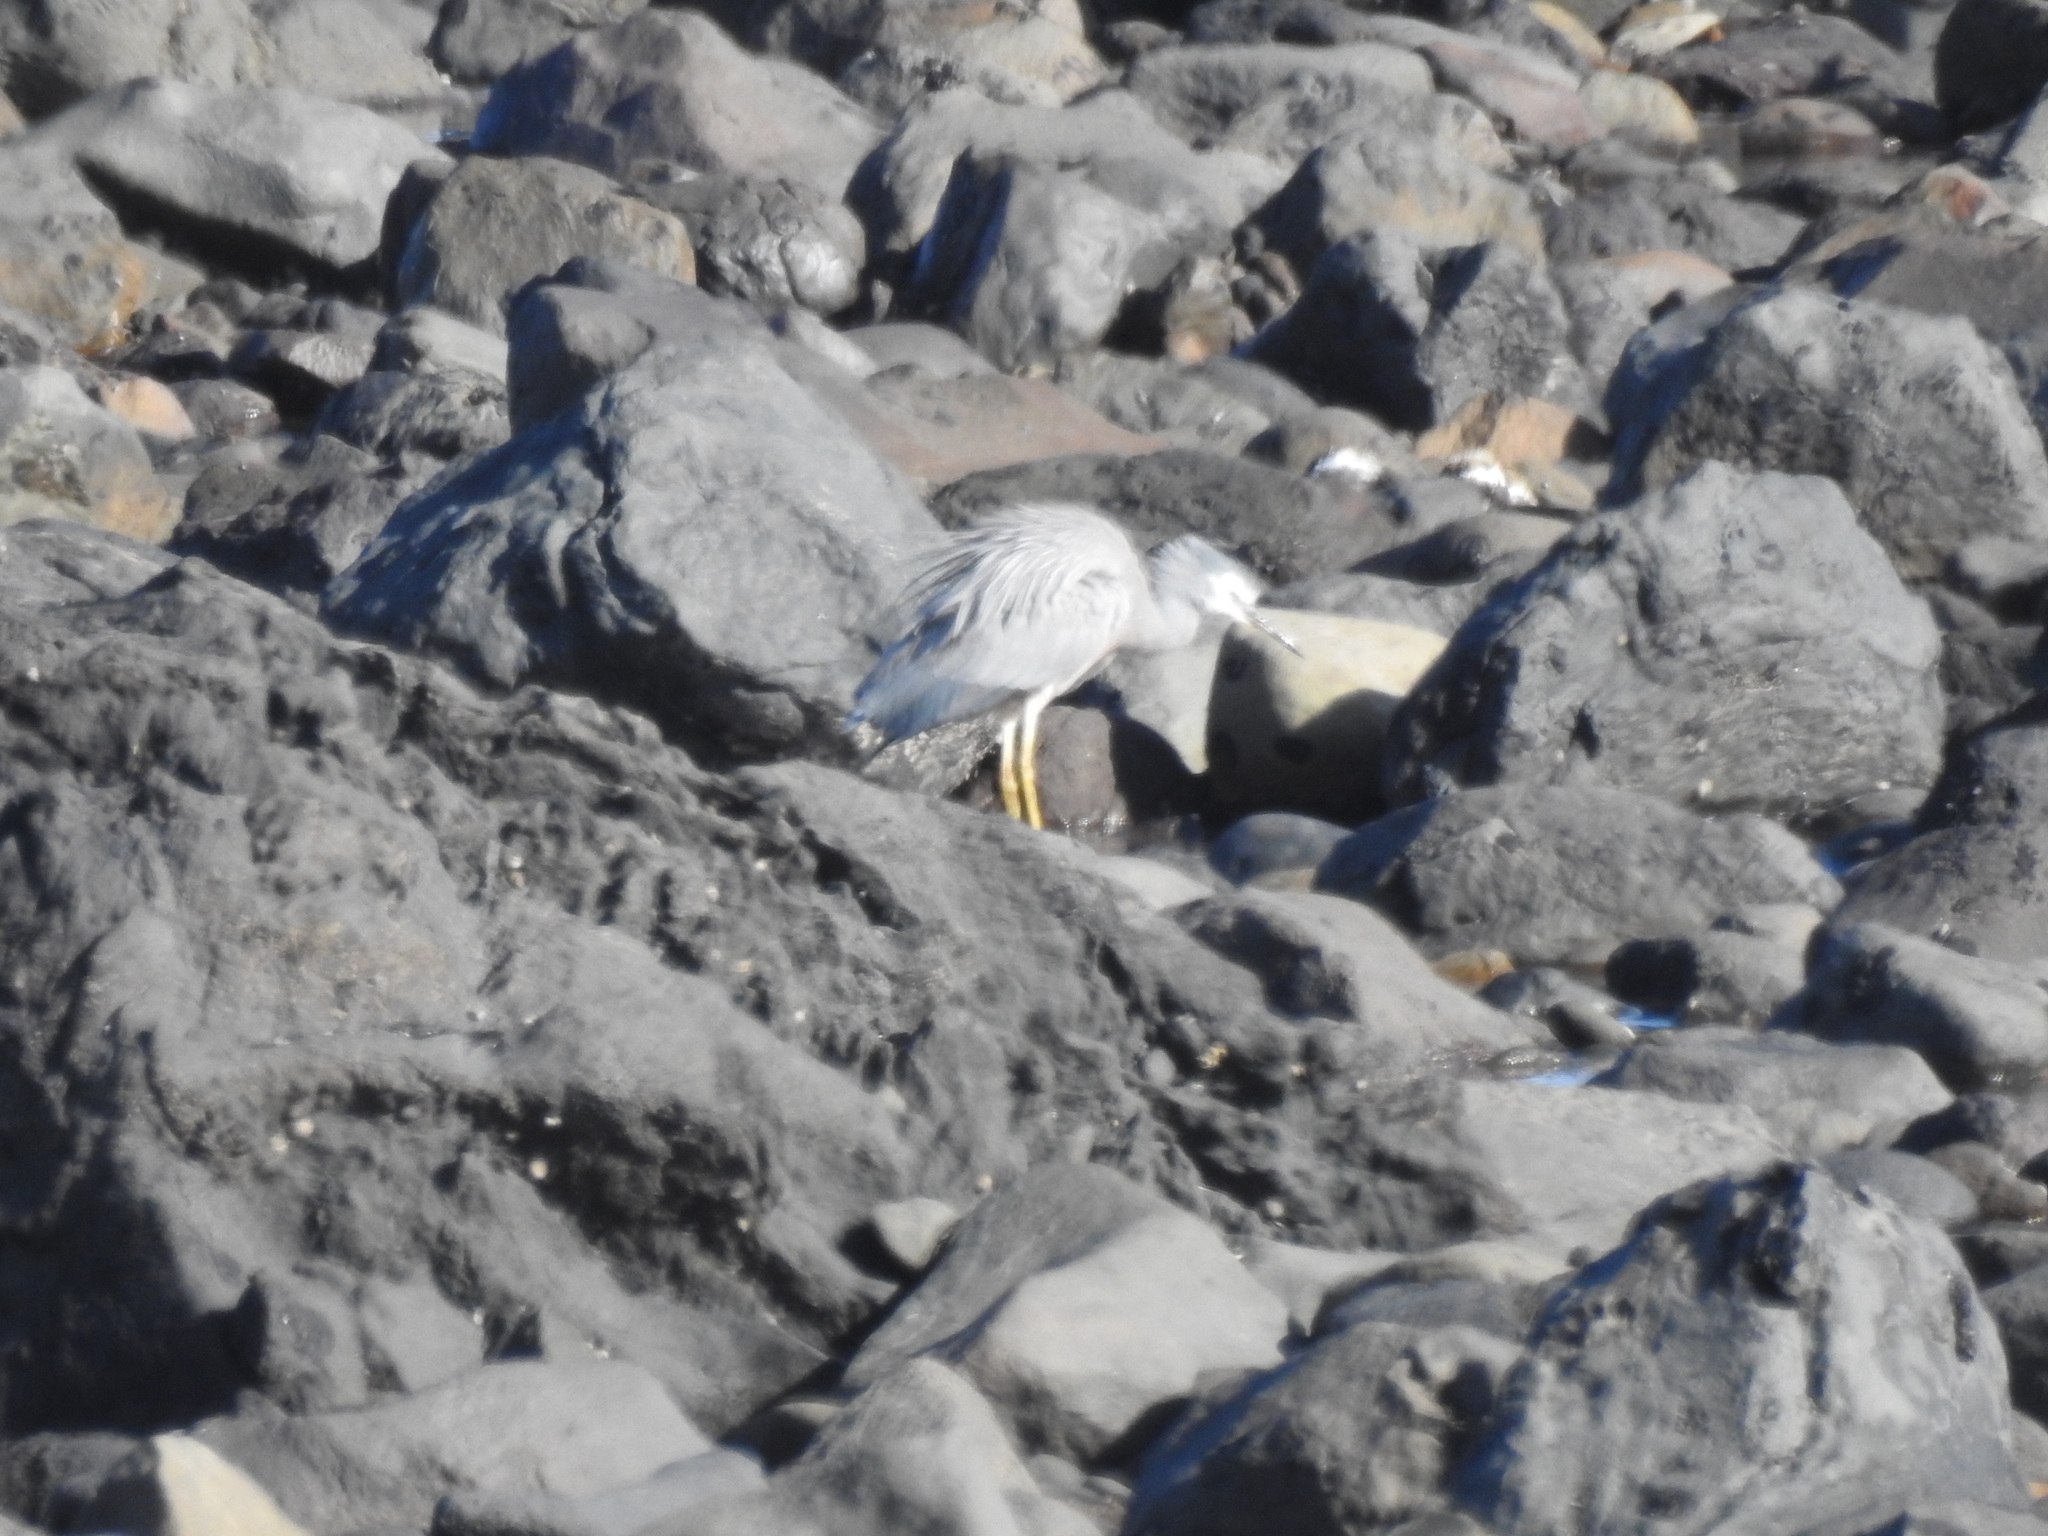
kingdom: Animalia
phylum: Chordata
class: Aves
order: Pelecaniformes
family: Ardeidae
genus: Egretta
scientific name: Egretta novaehollandiae
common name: White-faced heron
